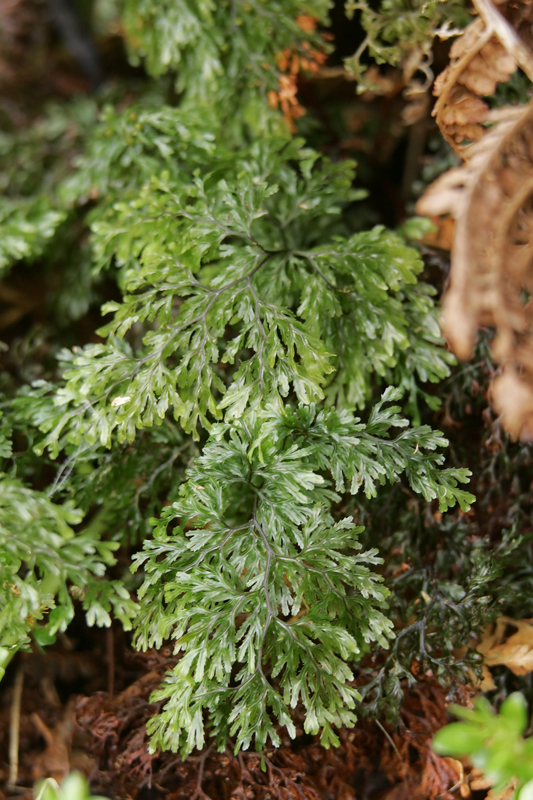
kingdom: Plantae
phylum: Tracheophyta
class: Polypodiopsida
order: Hymenophyllales
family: Hymenophyllaceae
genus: Hymenophyllum
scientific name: Hymenophyllum multifidum
